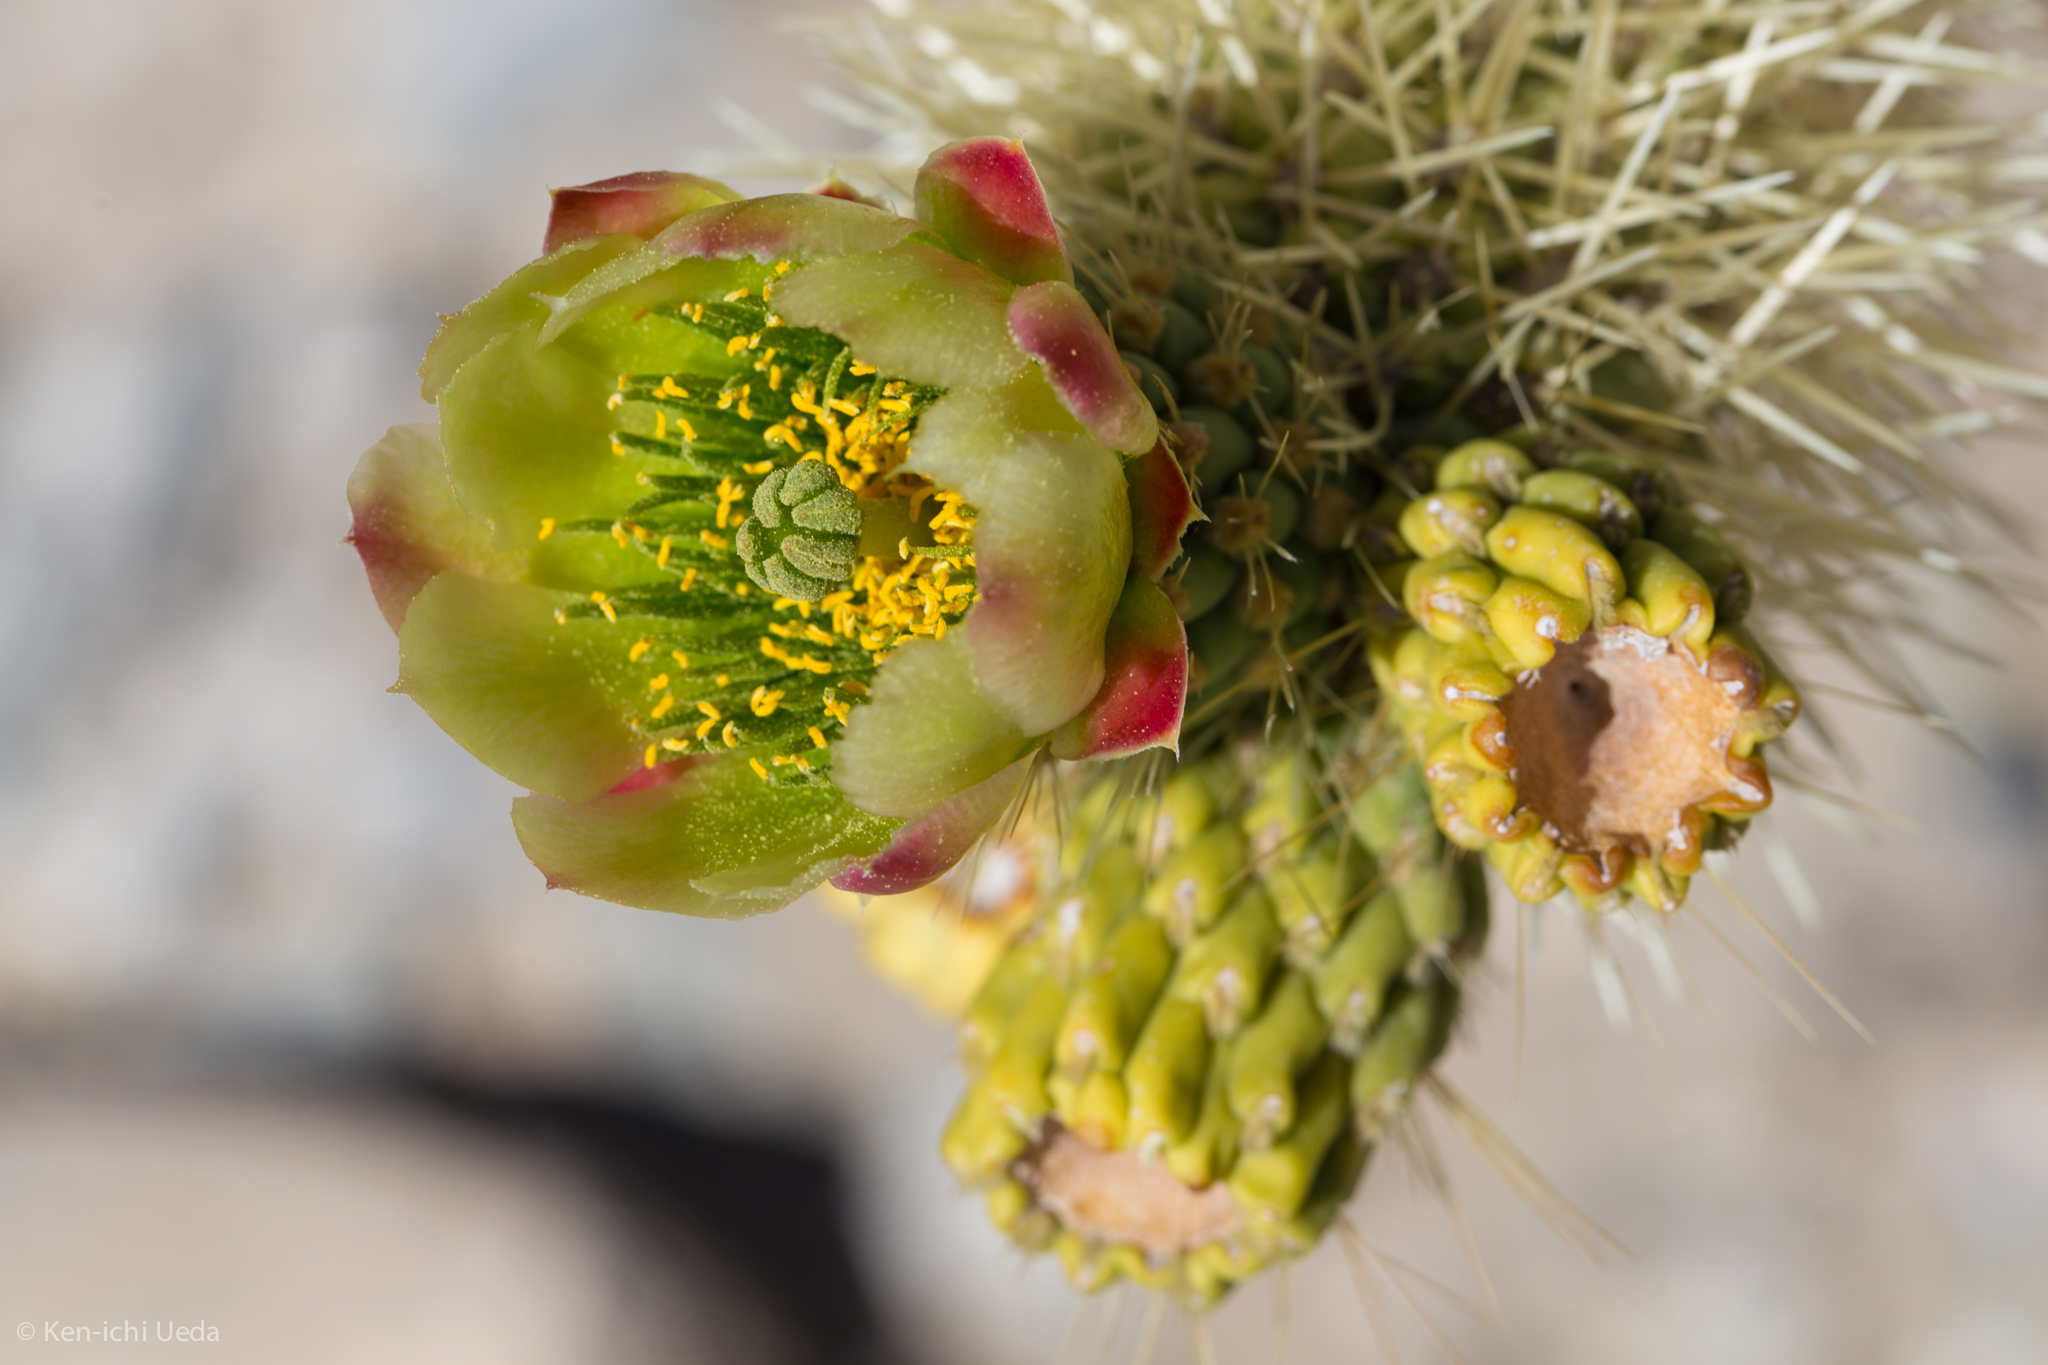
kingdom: Plantae
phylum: Tracheophyta
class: Magnoliopsida
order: Caryophyllales
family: Cactaceae
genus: Cylindropuntia
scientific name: Cylindropuntia fosbergii
